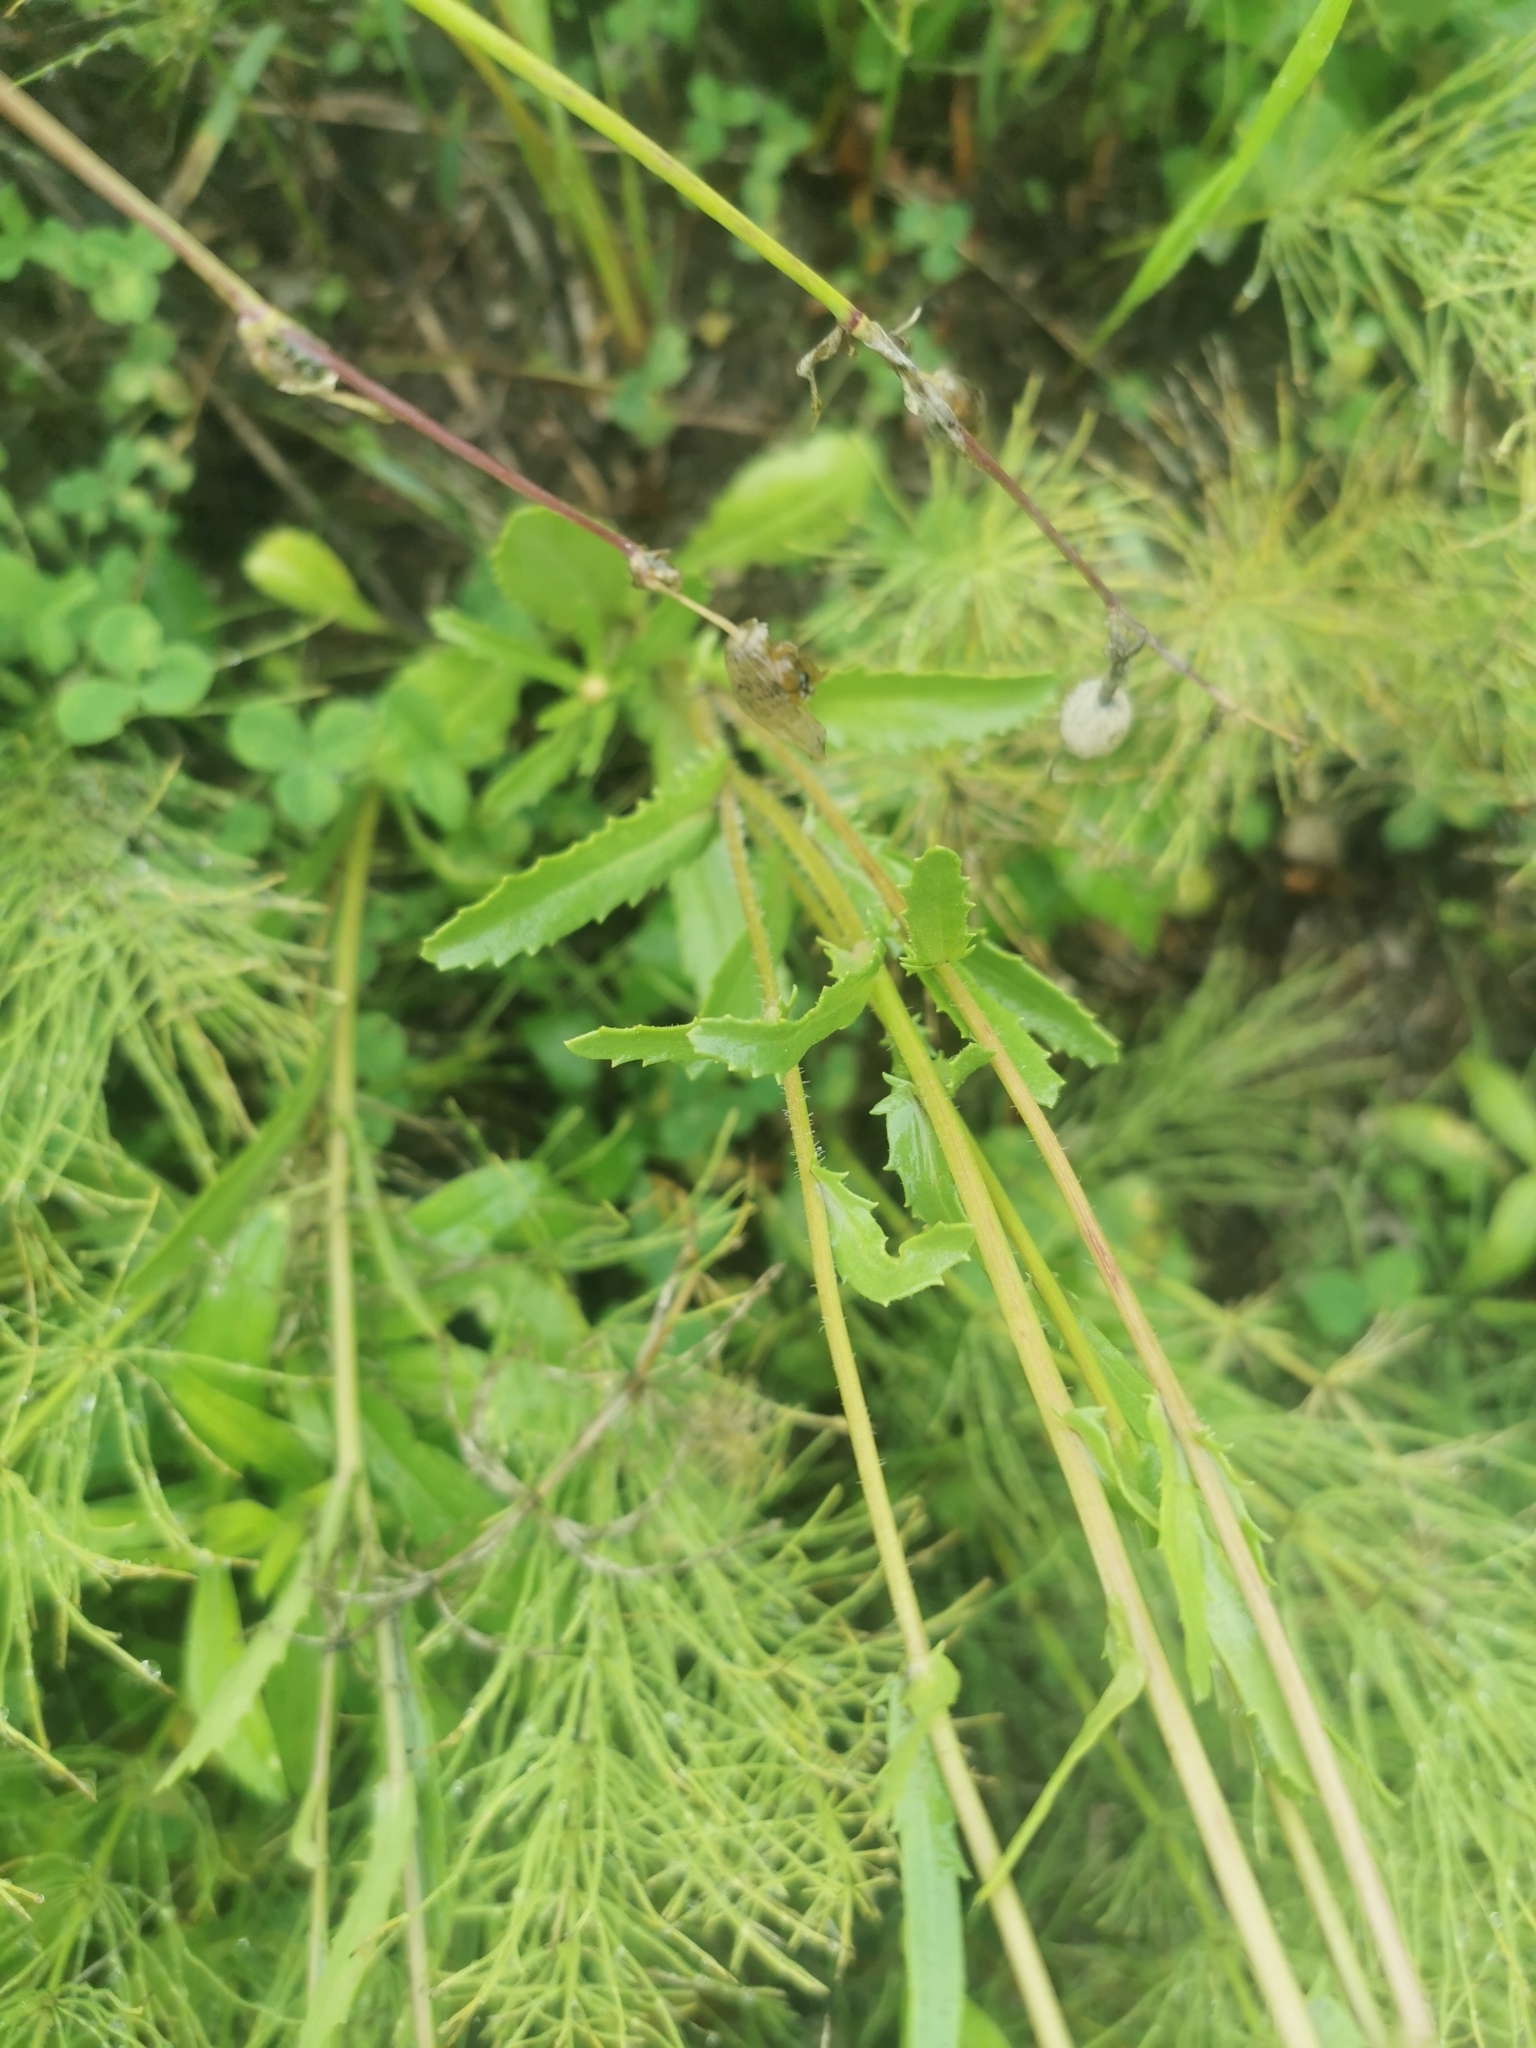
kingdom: Plantae
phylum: Tracheophyta
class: Magnoliopsida
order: Asterales
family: Asteraceae
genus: Leucanthemum
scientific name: Leucanthemum vulgare
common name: Oxeye daisy
